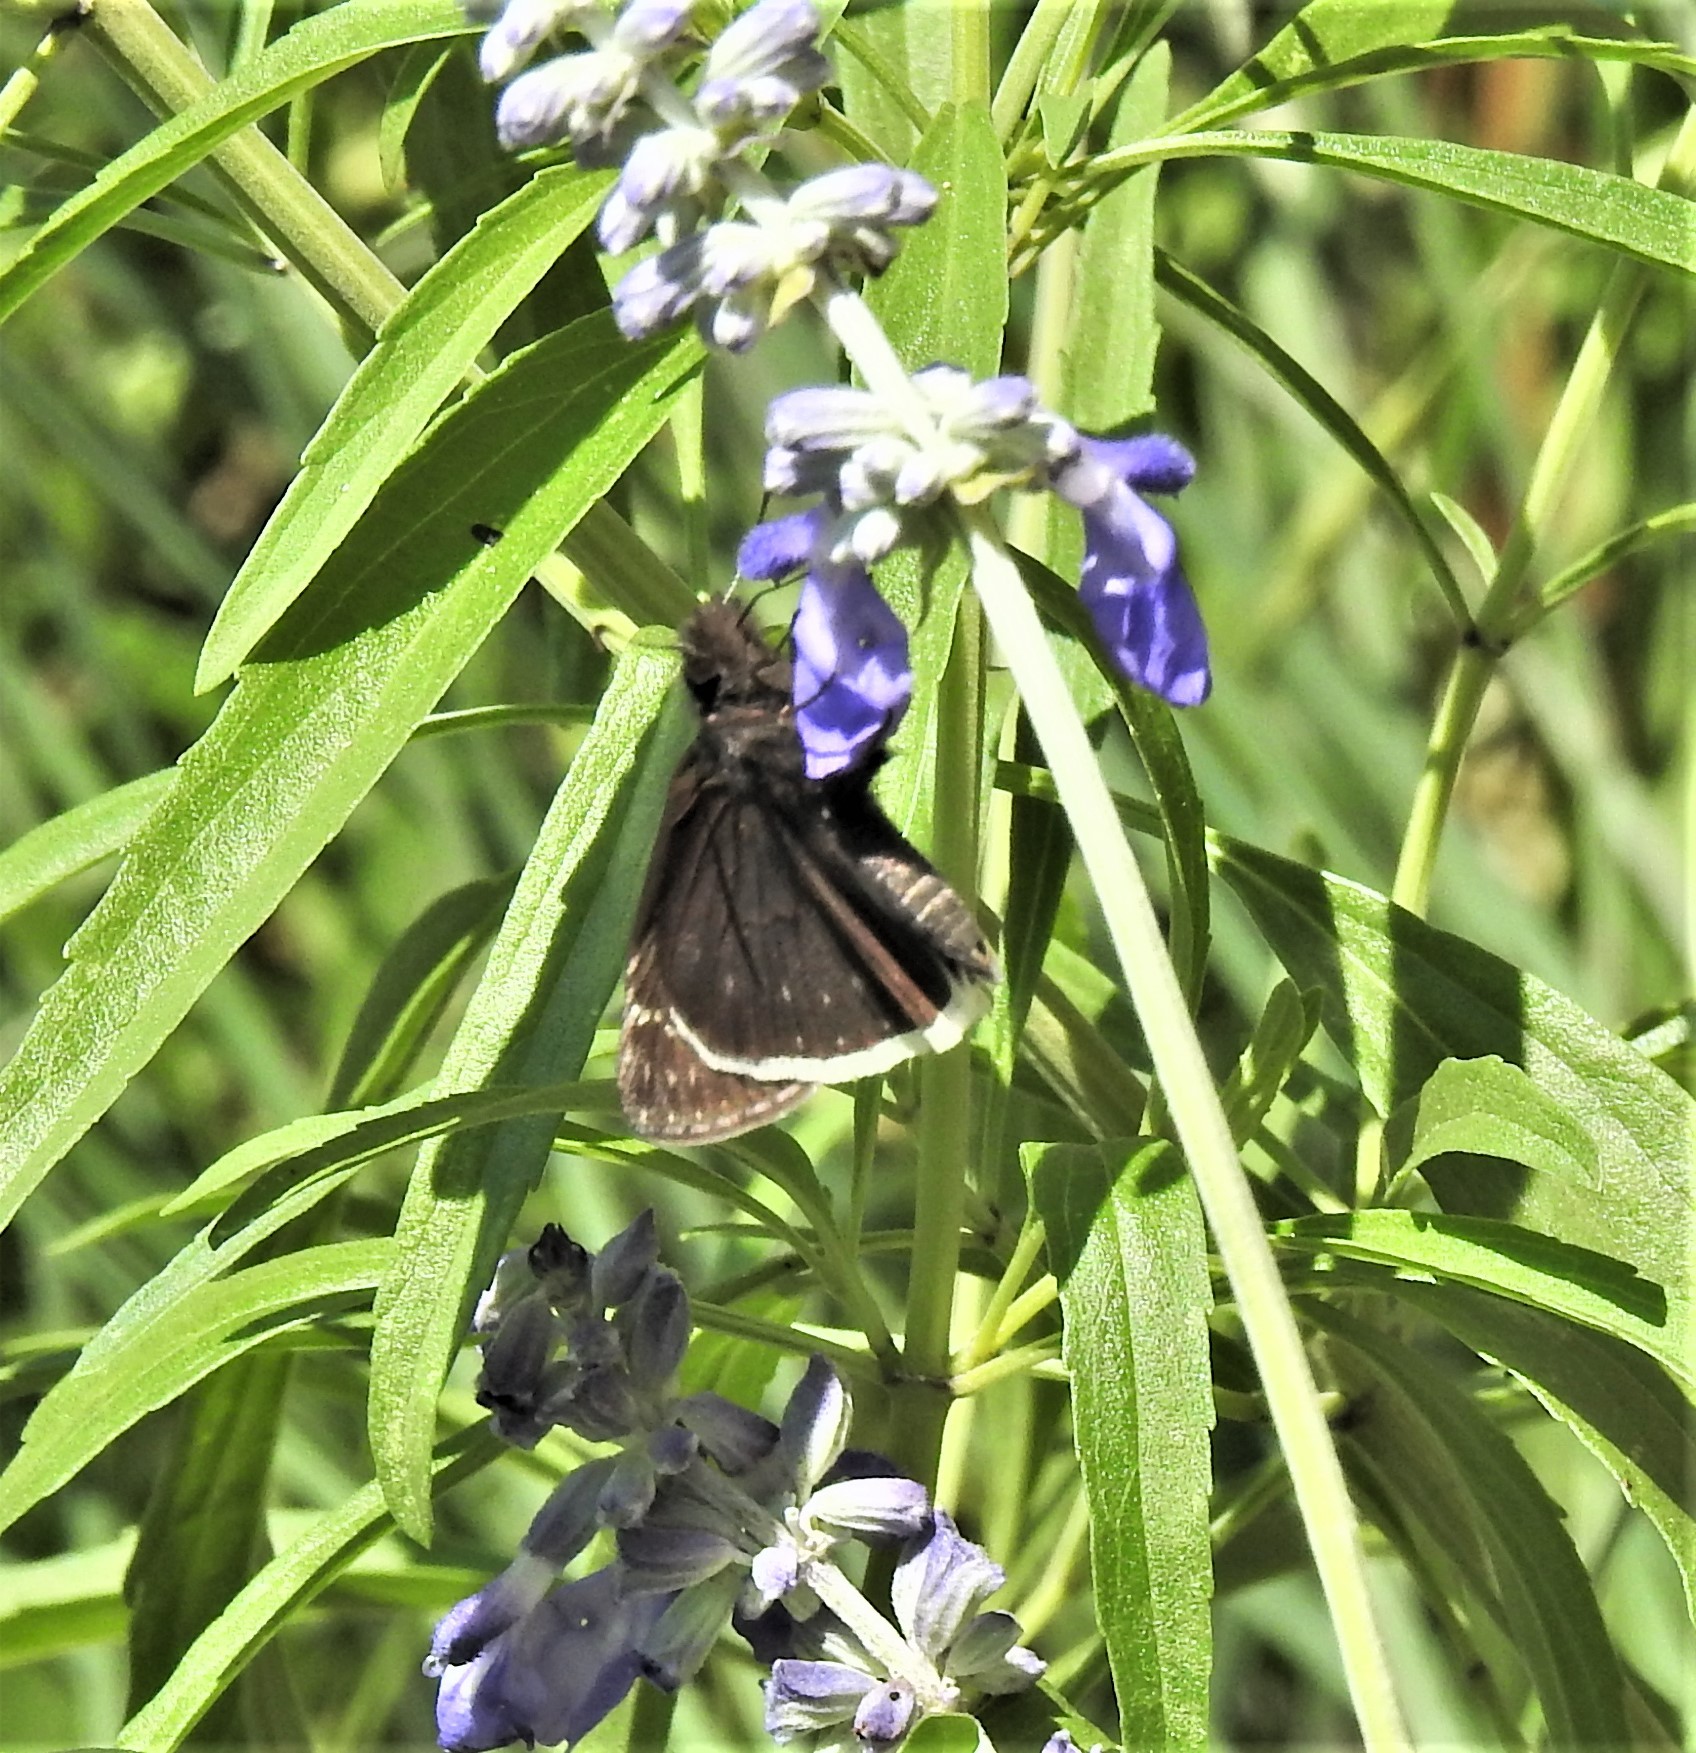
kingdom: Animalia
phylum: Arthropoda
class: Insecta
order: Lepidoptera
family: Hesperiidae
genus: Erynnis
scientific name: Erynnis funeralis
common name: Funereal duskywing
